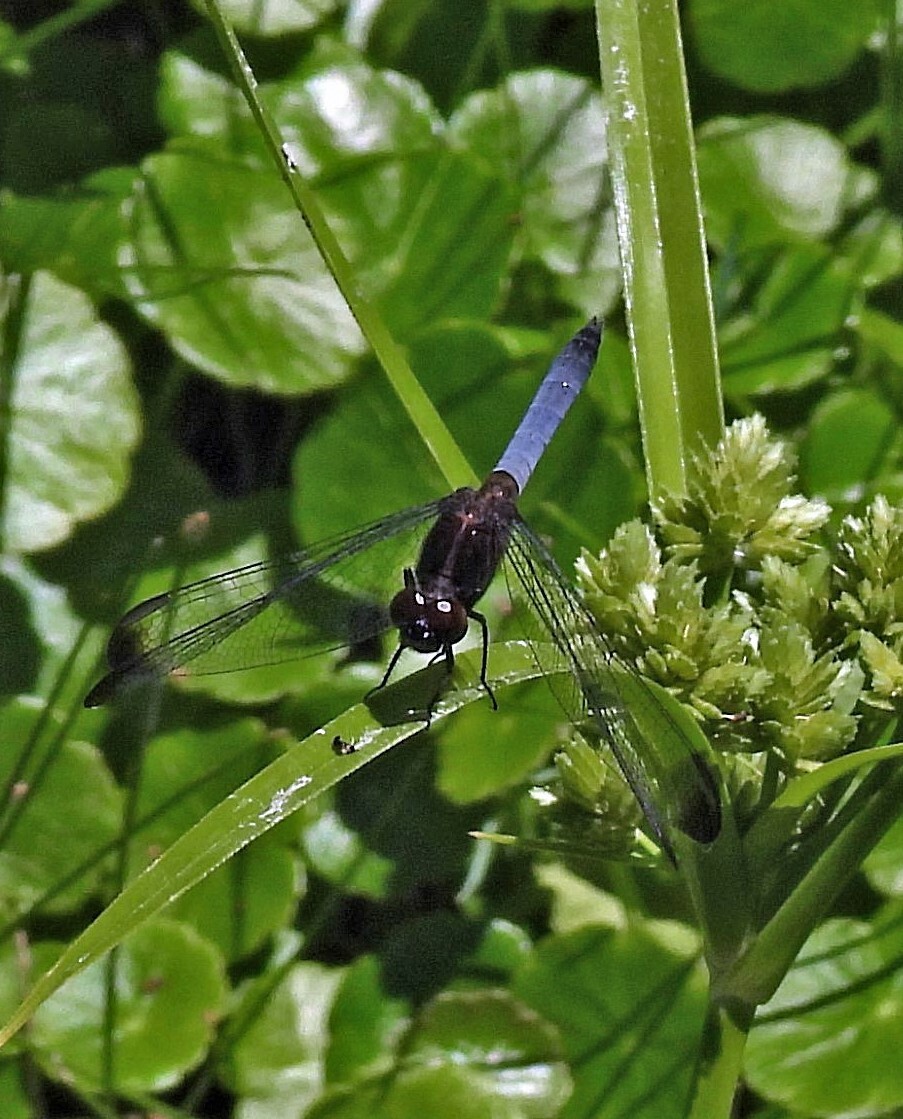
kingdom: Animalia
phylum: Arthropoda
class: Insecta
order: Odonata
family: Libellulidae
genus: Erythrodiplax
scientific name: Erythrodiplax atroterminata
